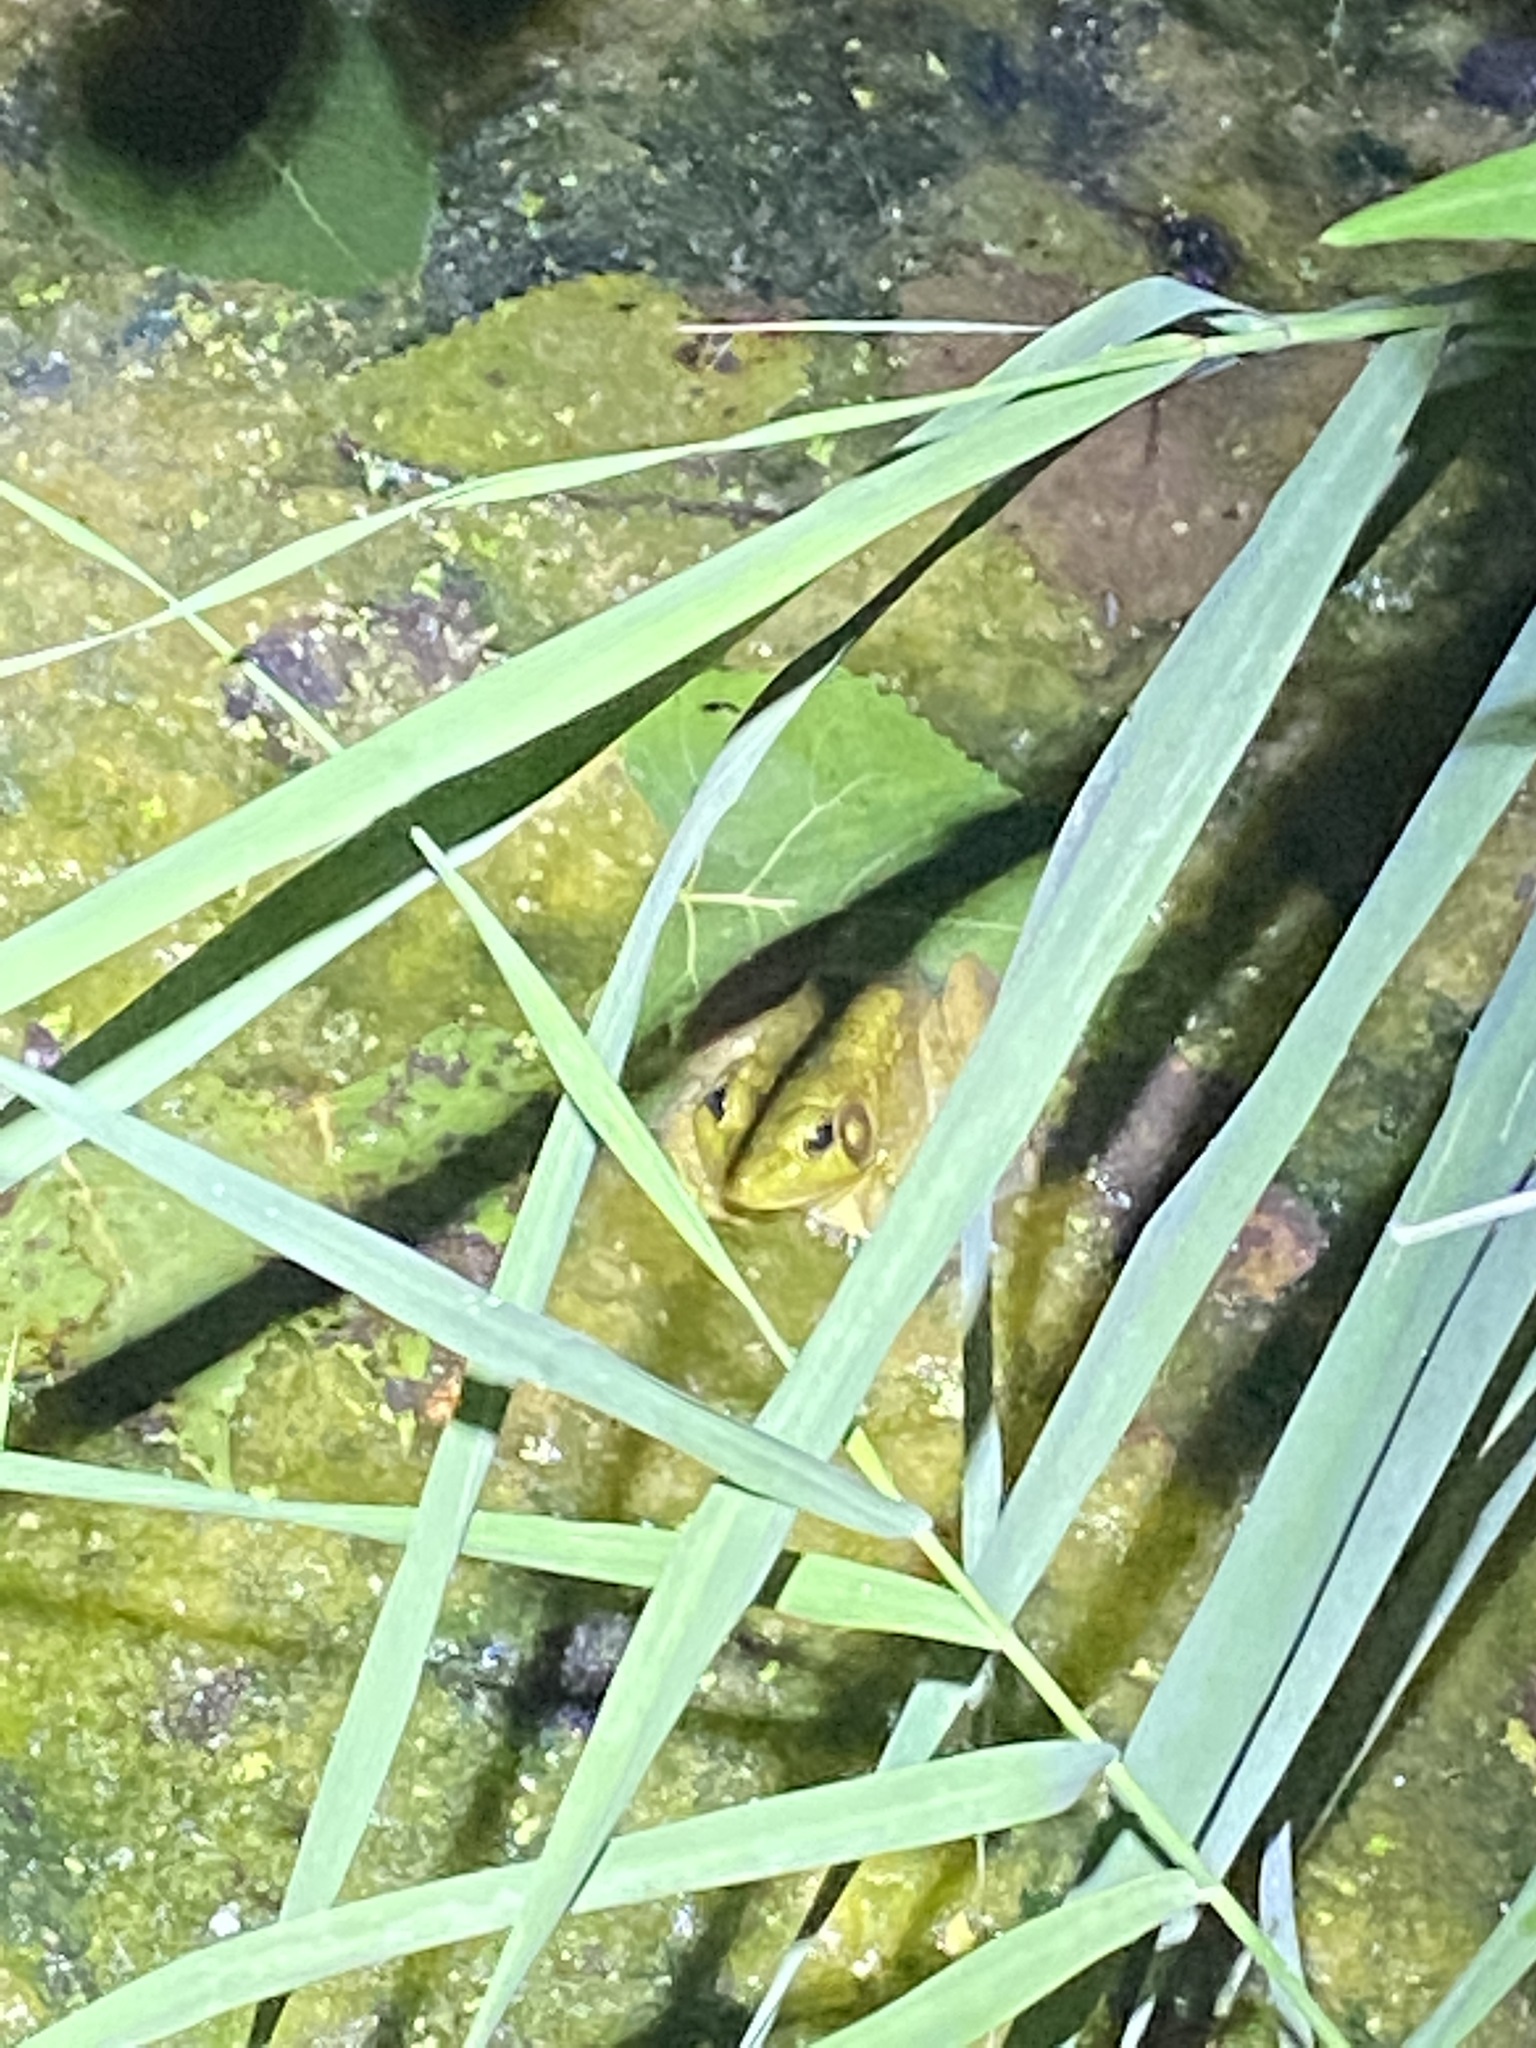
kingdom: Animalia
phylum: Chordata
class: Amphibia
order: Anura
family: Ranidae
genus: Lithobates
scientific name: Lithobates clamitans
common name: Green frog
